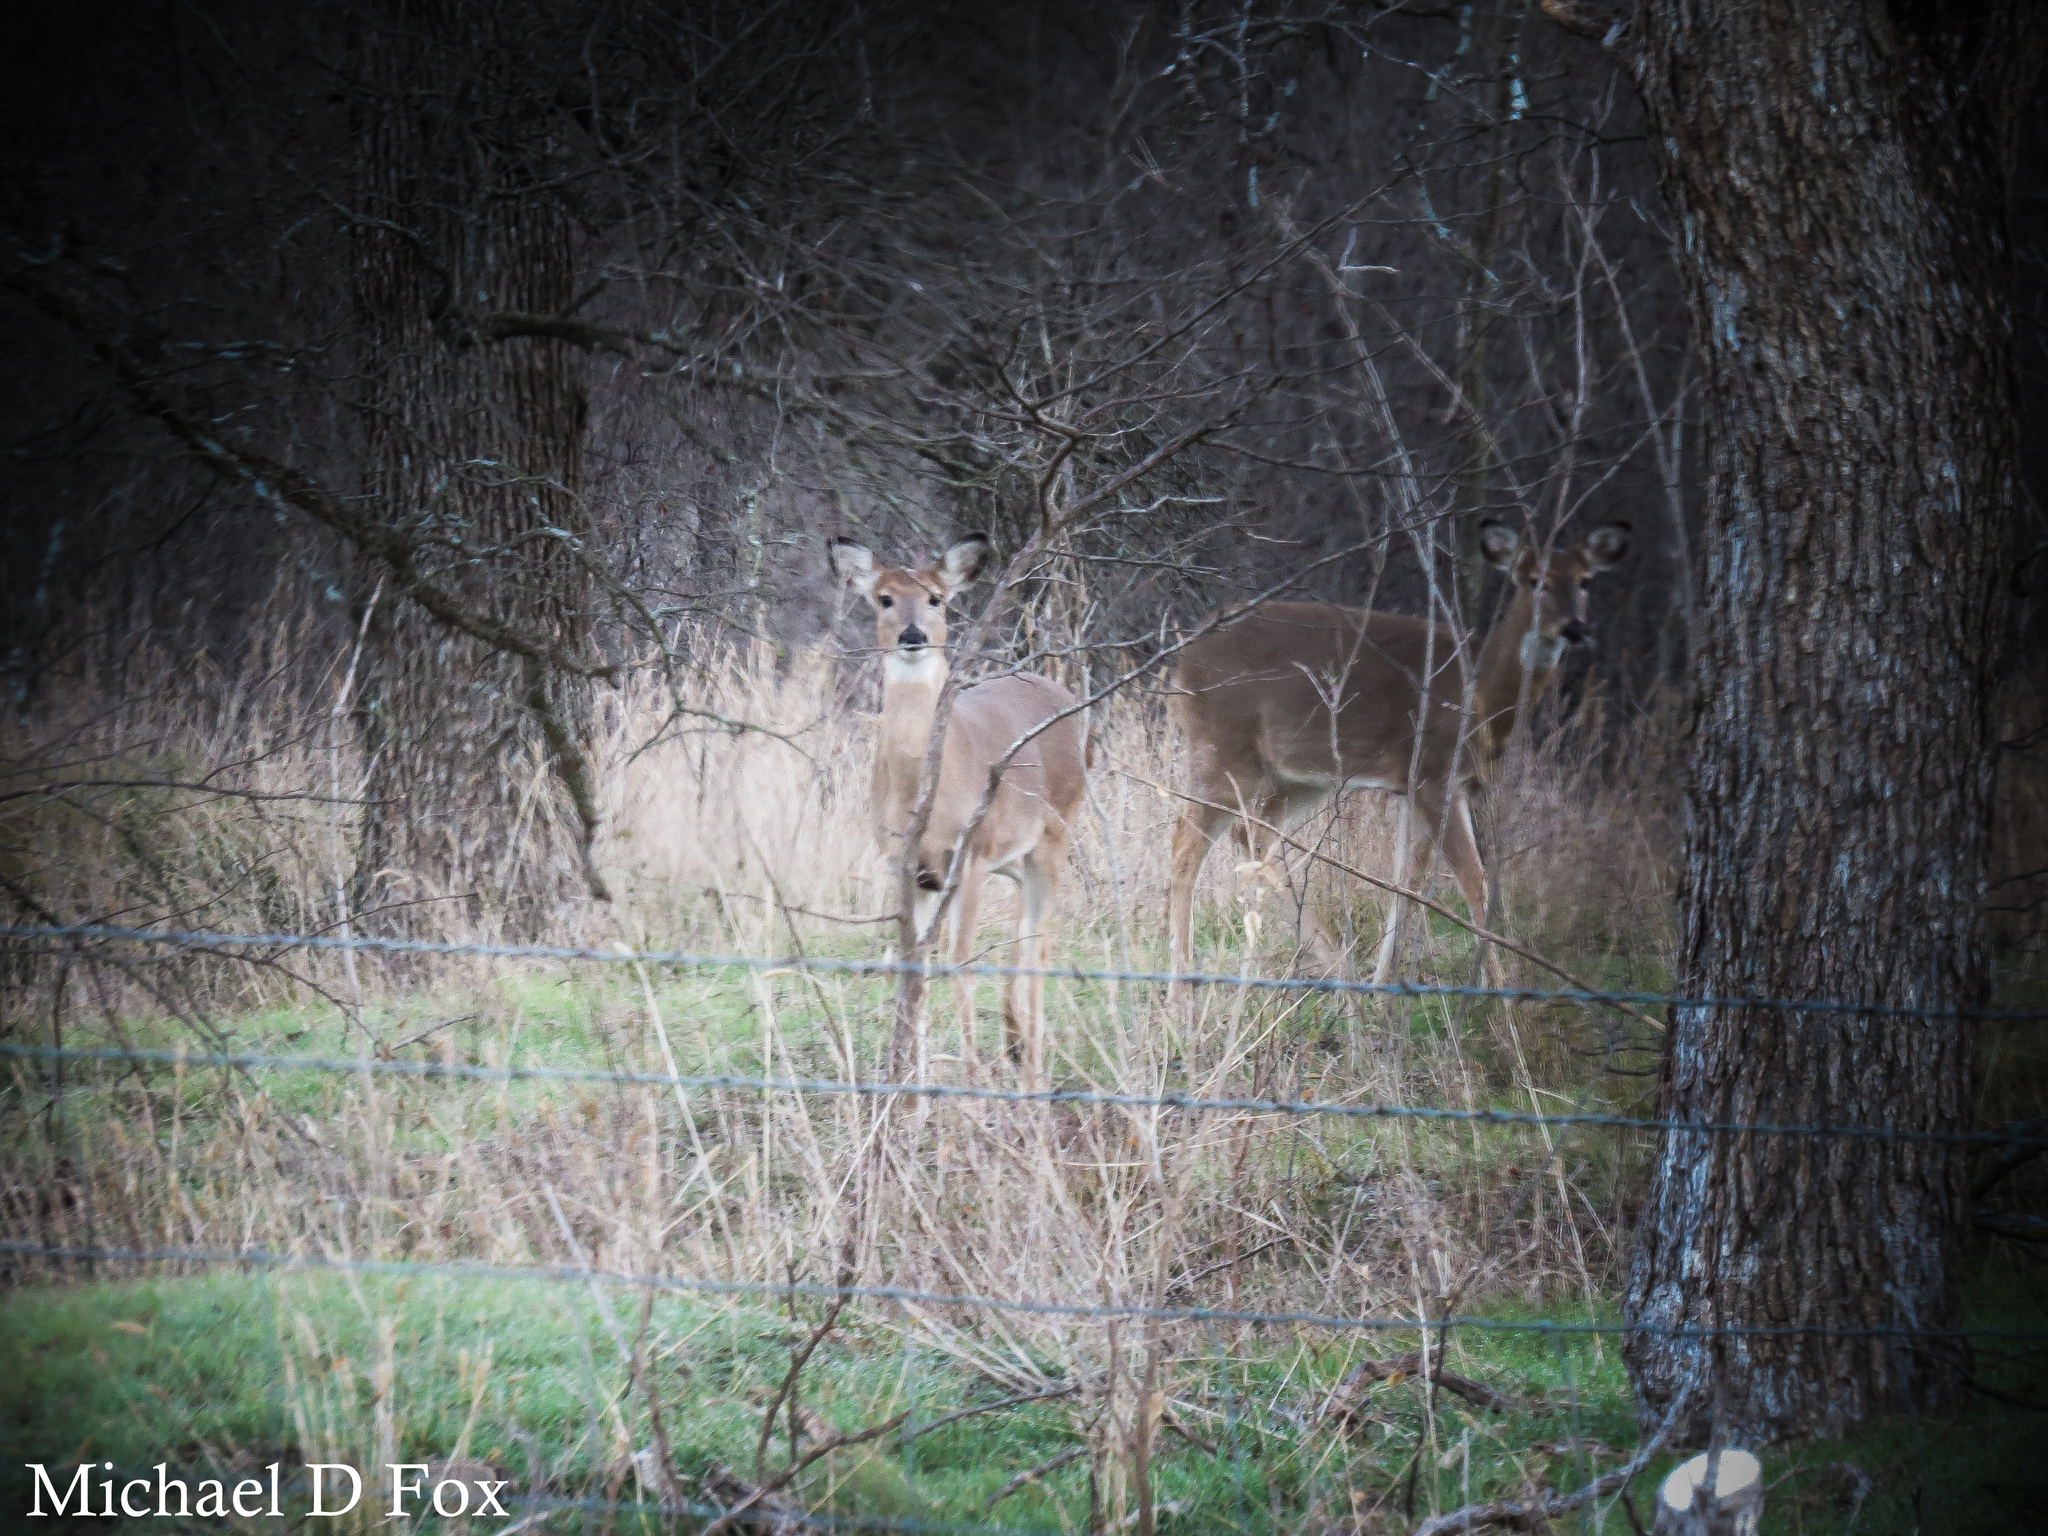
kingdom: Animalia
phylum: Chordata
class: Mammalia
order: Artiodactyla
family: Cervidae
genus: Odocoileus
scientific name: Odocoileus virginianus
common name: White-tailed deer
